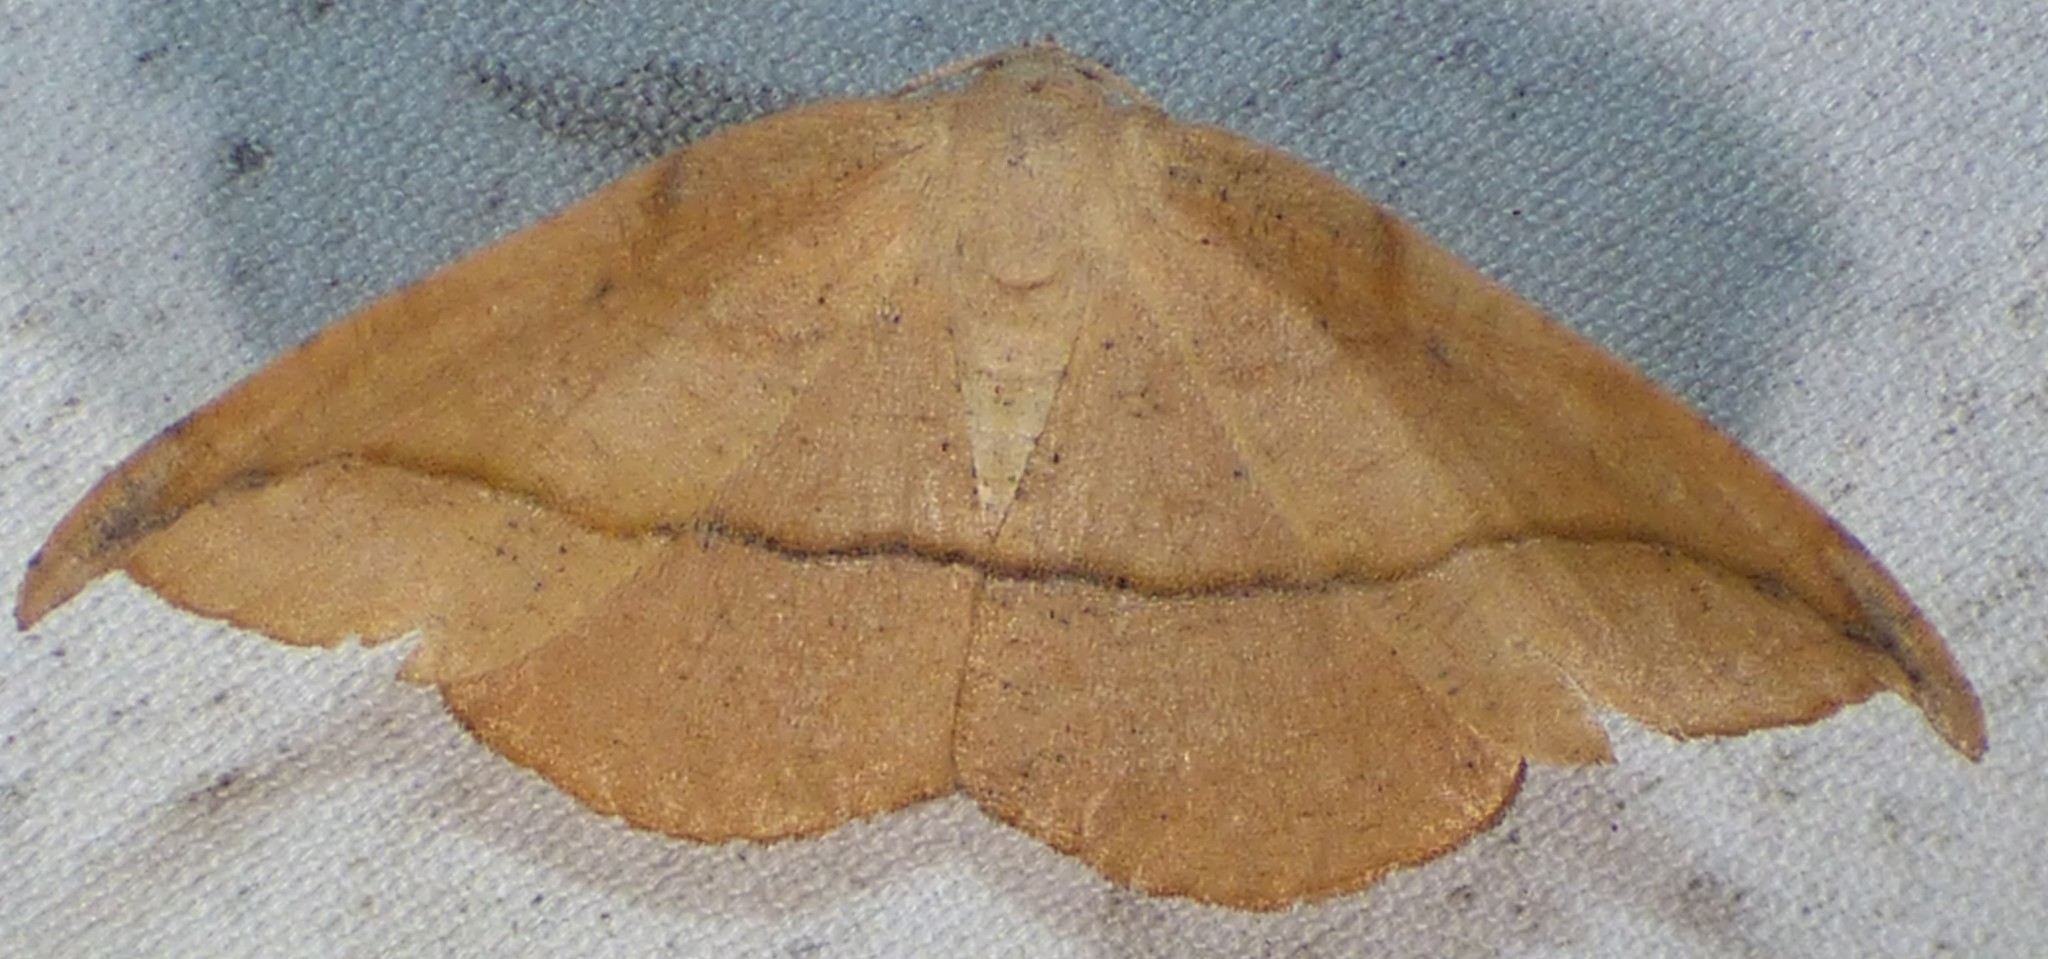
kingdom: Animalia
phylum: Arthropoda
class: Insecta
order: Lepidoptera
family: Geometridae
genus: Patalene
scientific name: Patalene olyzonaria
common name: Juniper geometer moth
